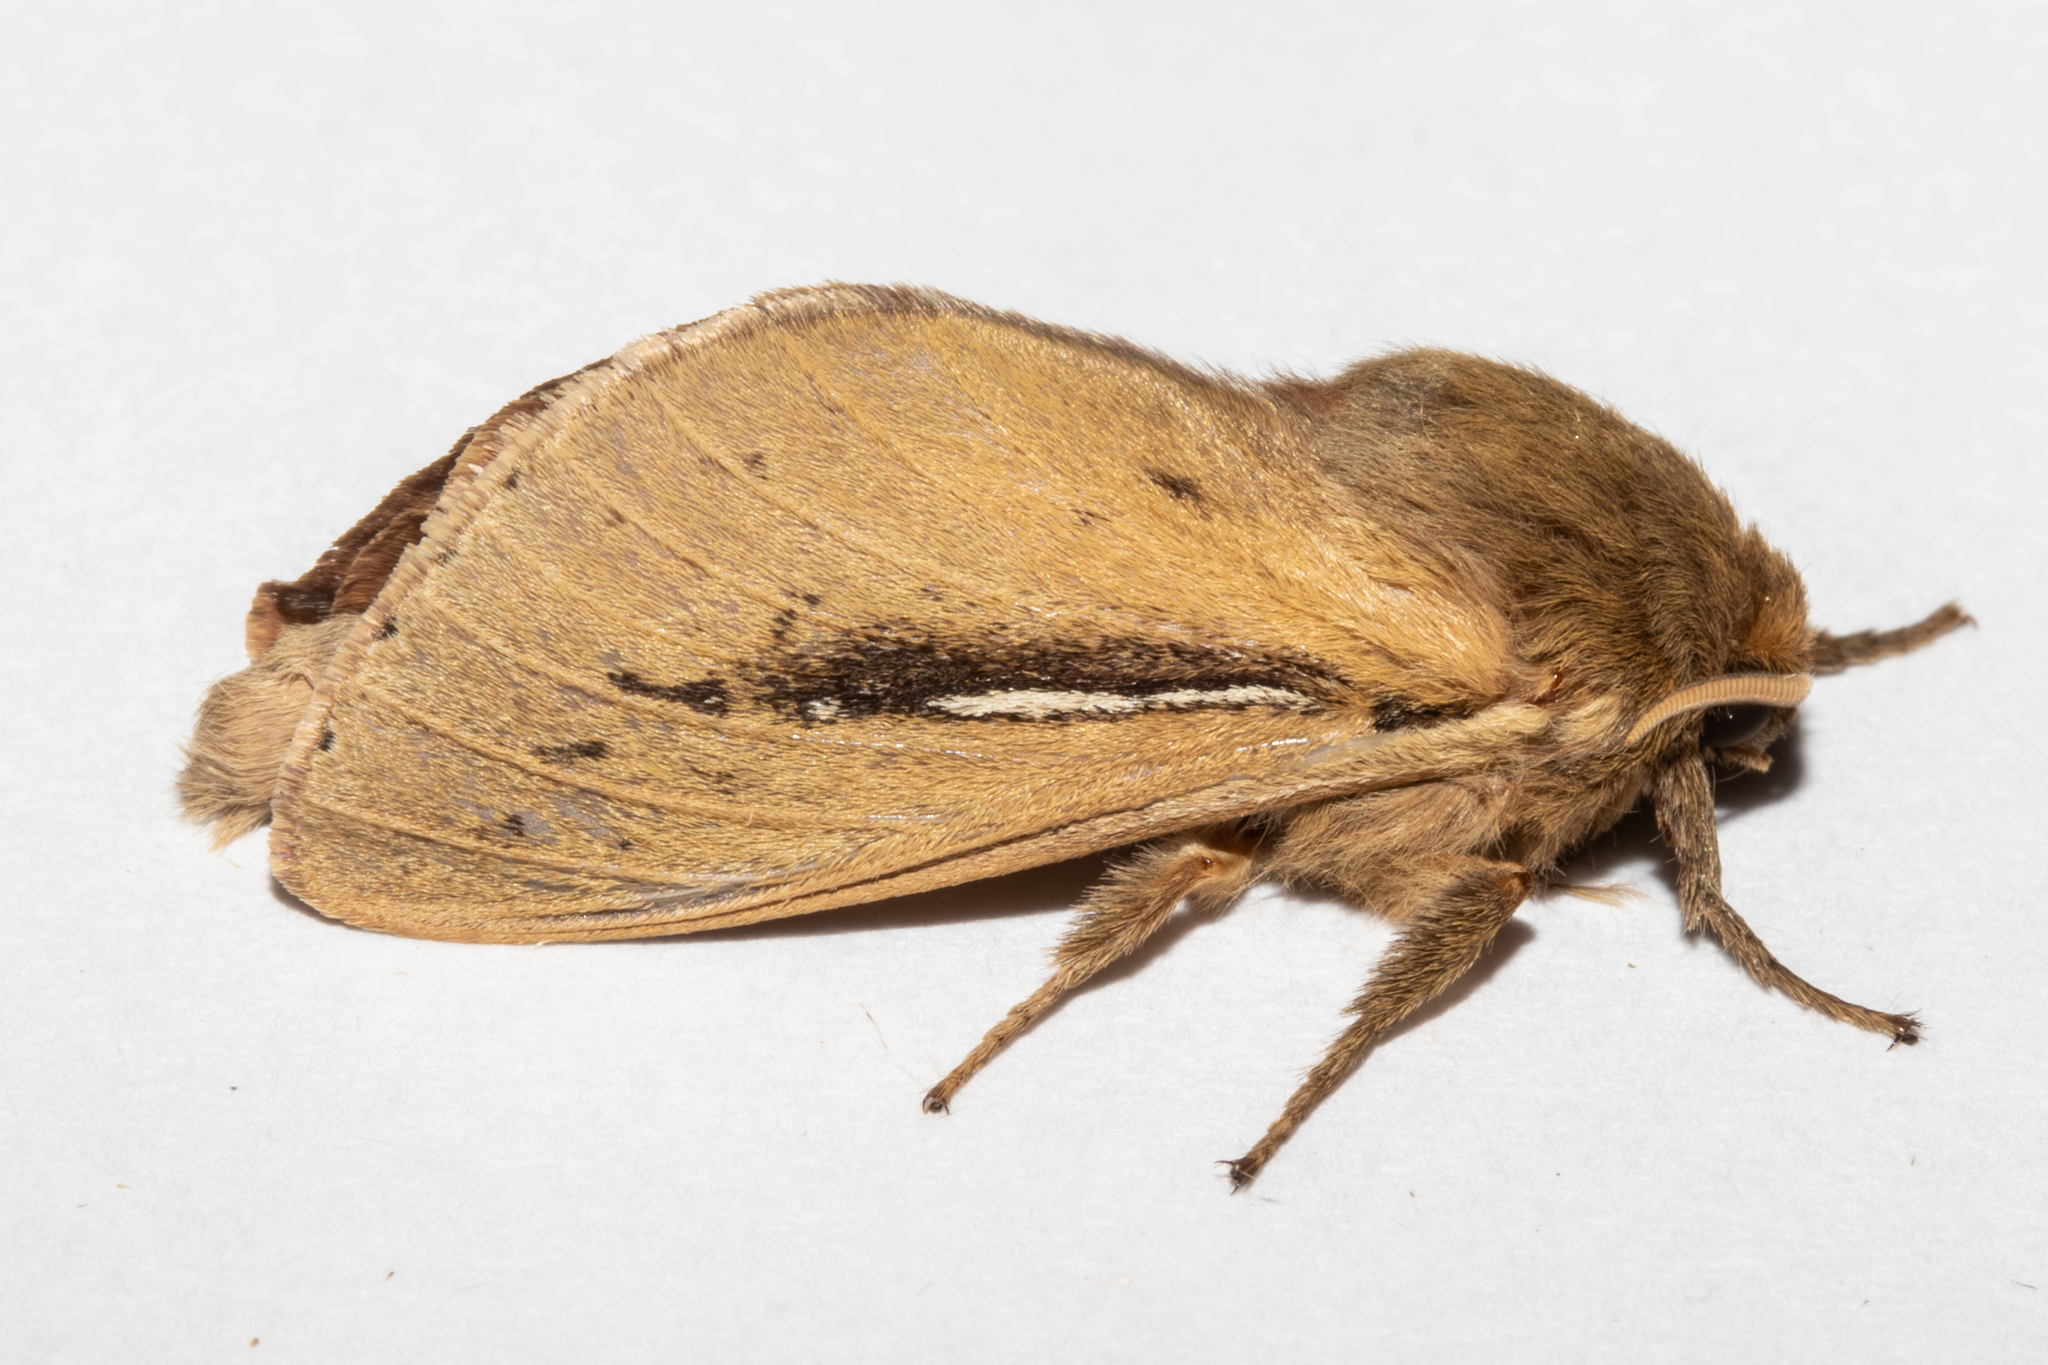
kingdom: Animalia
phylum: Arthropoda
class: Insecta
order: Lepidoptera
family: Hepialidae
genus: Wiseana
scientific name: Wiseana umbraculatus
